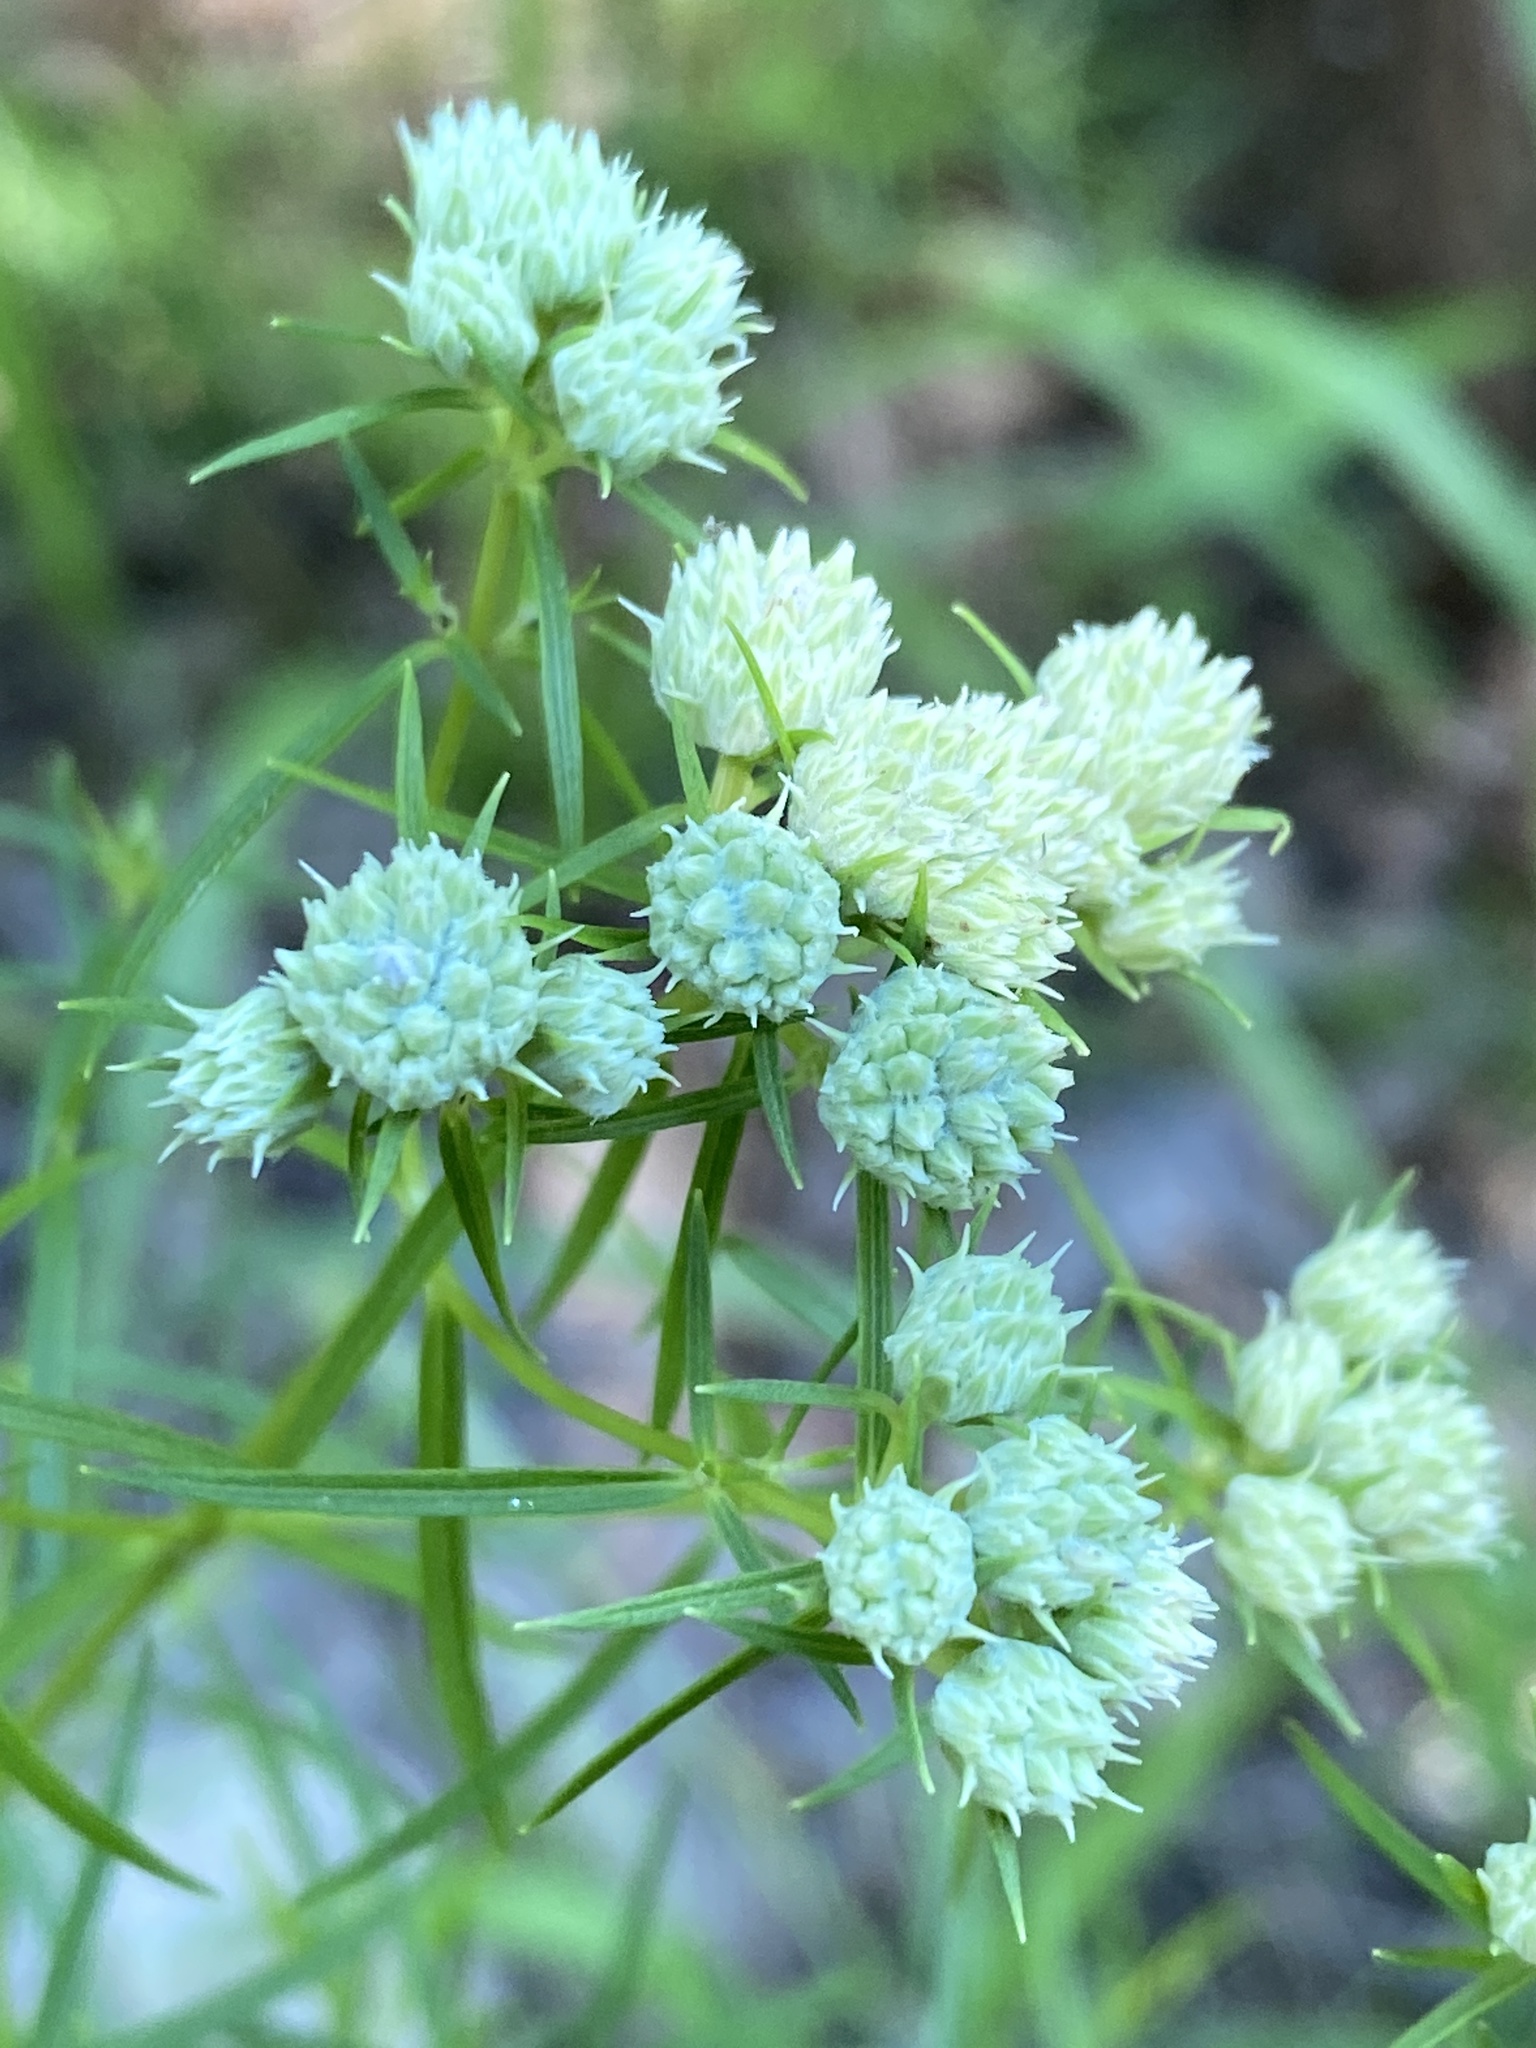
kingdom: Plantae
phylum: Tracheophyta
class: Magnoliopsida
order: Lamiales
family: Lamiaceae
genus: Pycnanthemum
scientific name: Pycnanthemum tenuifolium
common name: Narrow-leaf mountain-mint
